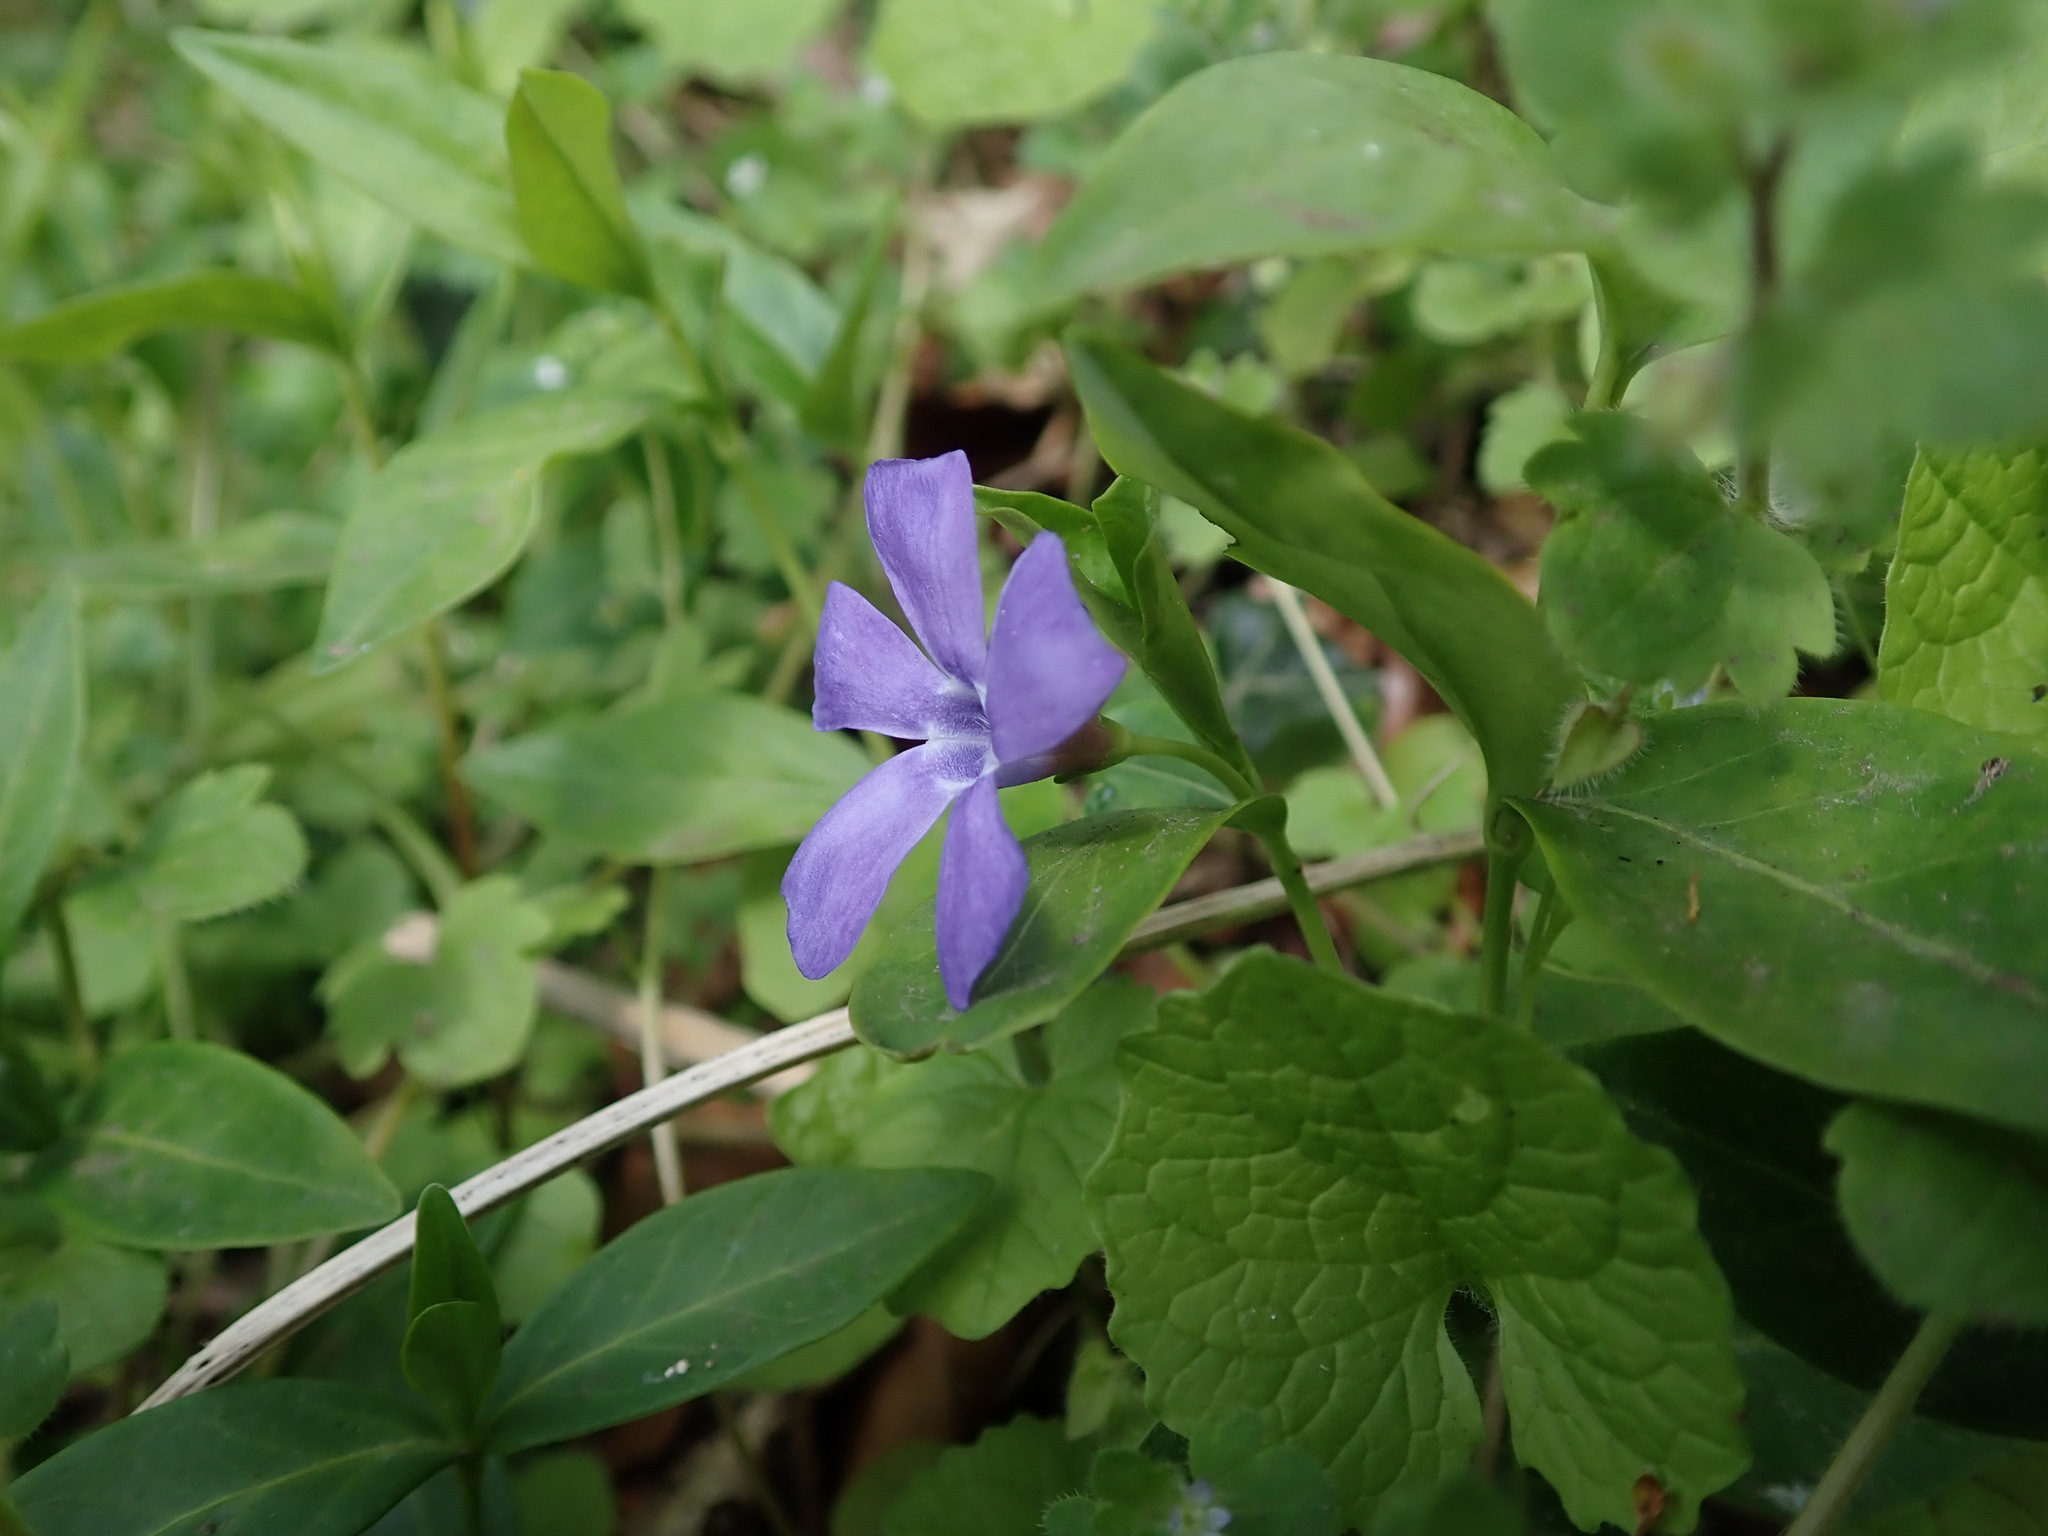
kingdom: Plantae
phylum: Tracheophyta
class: Magnoliopsida
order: Gentianales
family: Apocynaceae
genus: Vinca
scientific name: Vinca minor
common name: Lesser periwinkle
